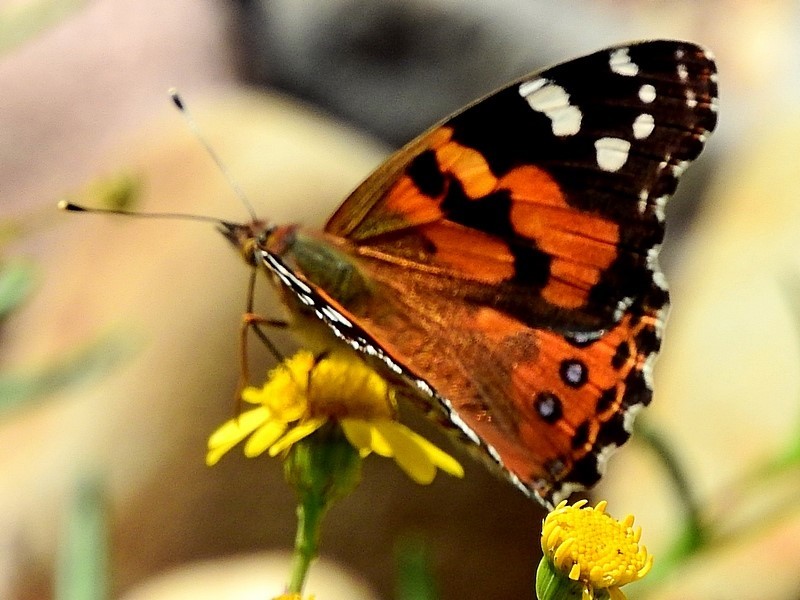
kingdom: Animalia
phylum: Arthropoda
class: Insecta
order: Lepidoptera
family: Nymphalidae
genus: Vanessa
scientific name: Vanessa kershawi
